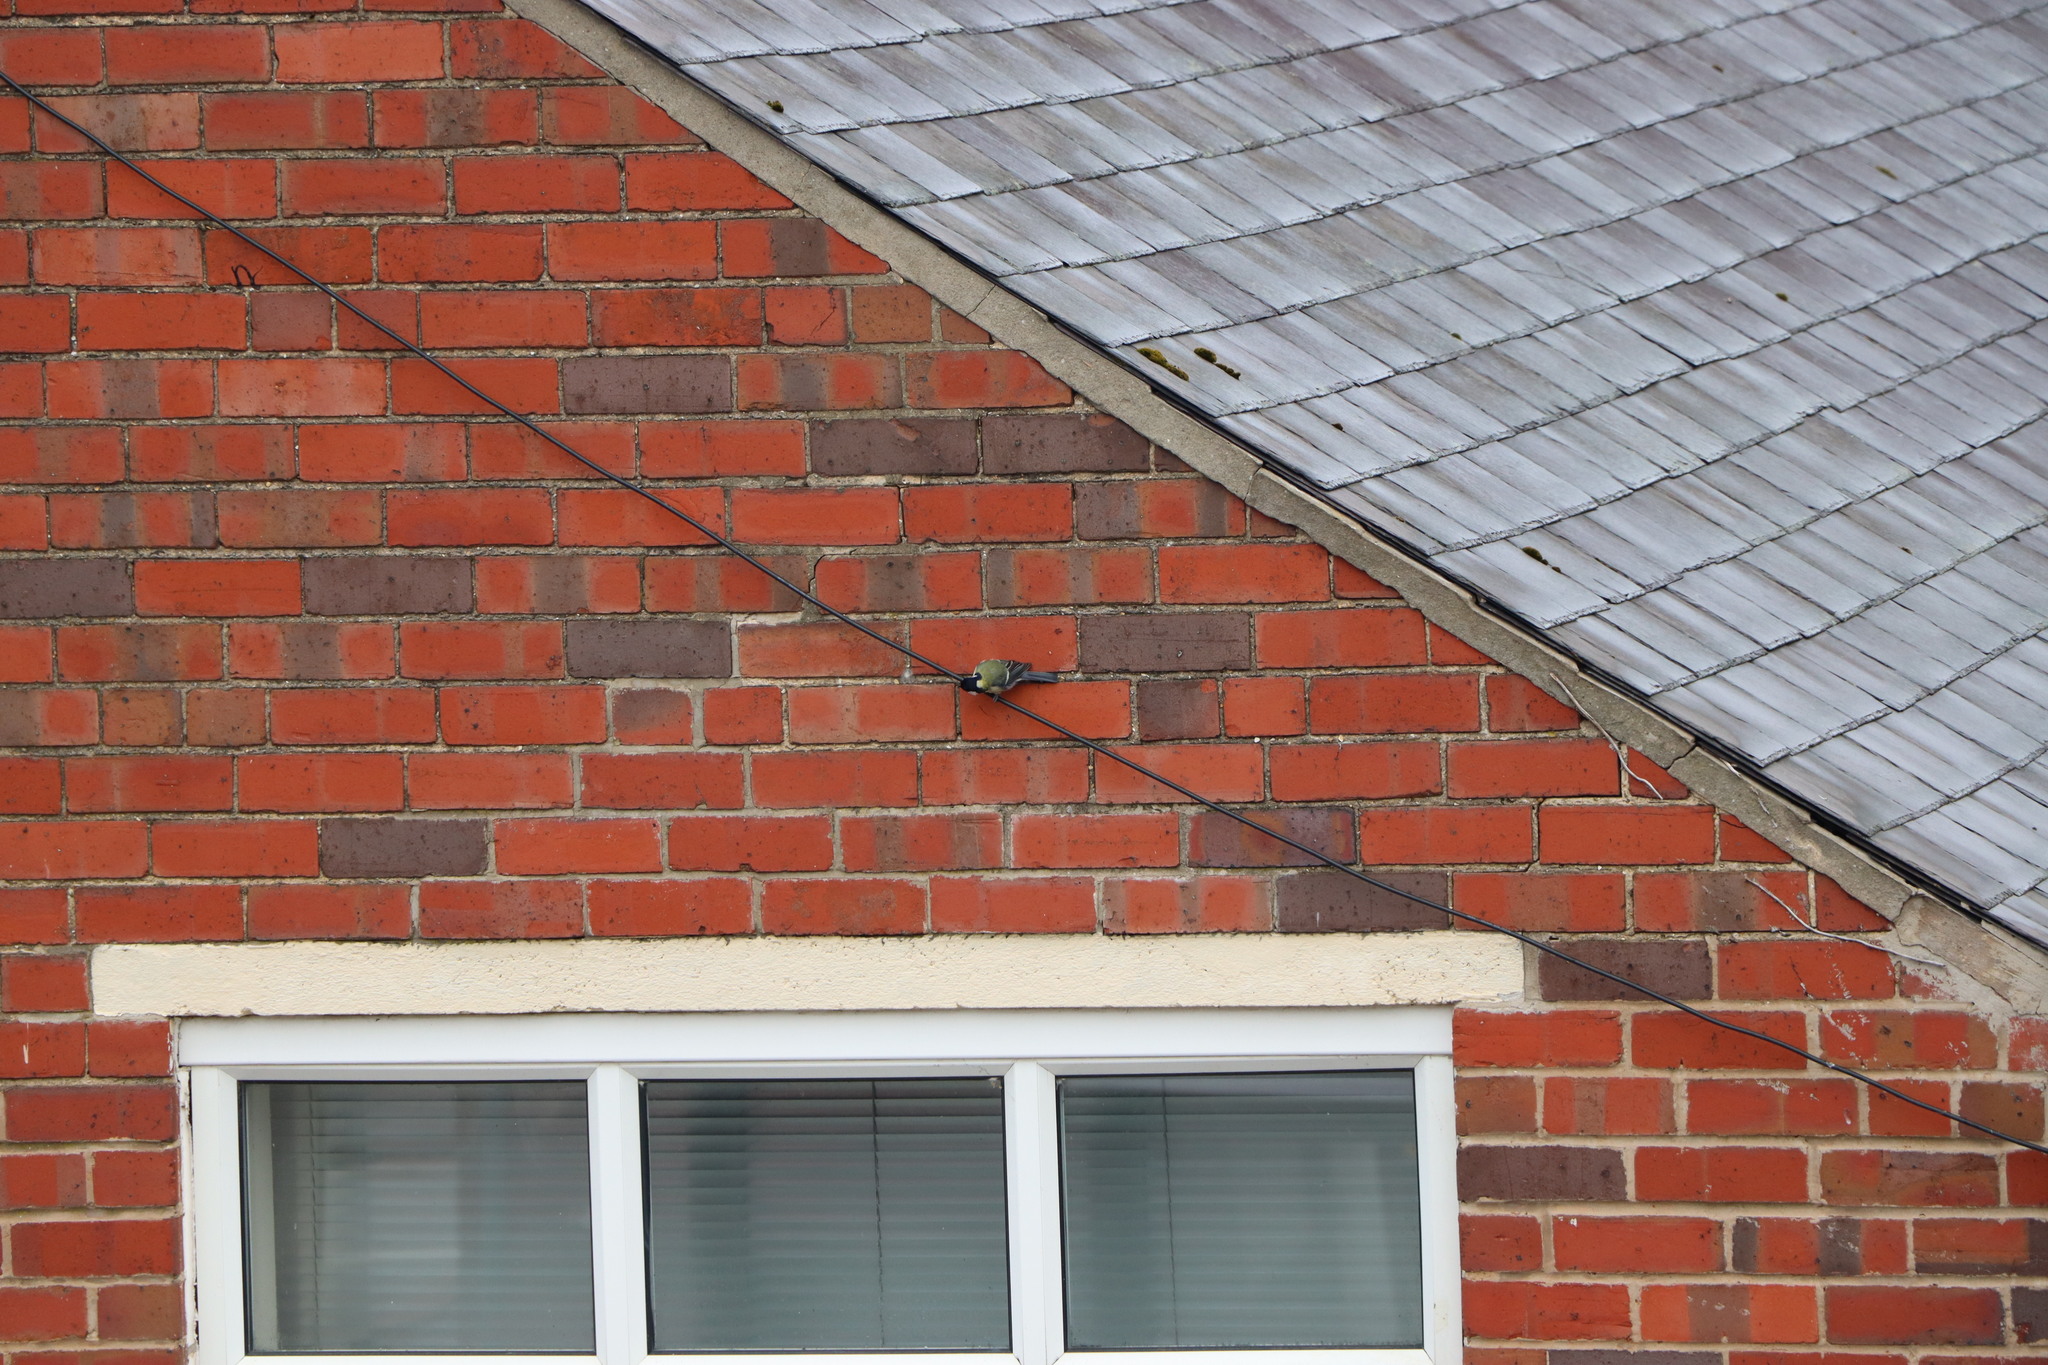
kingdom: Animalia
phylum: Chordata
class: Aves
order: Passeriformes
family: Paridae
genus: Parus
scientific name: Parus major
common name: Great tit
